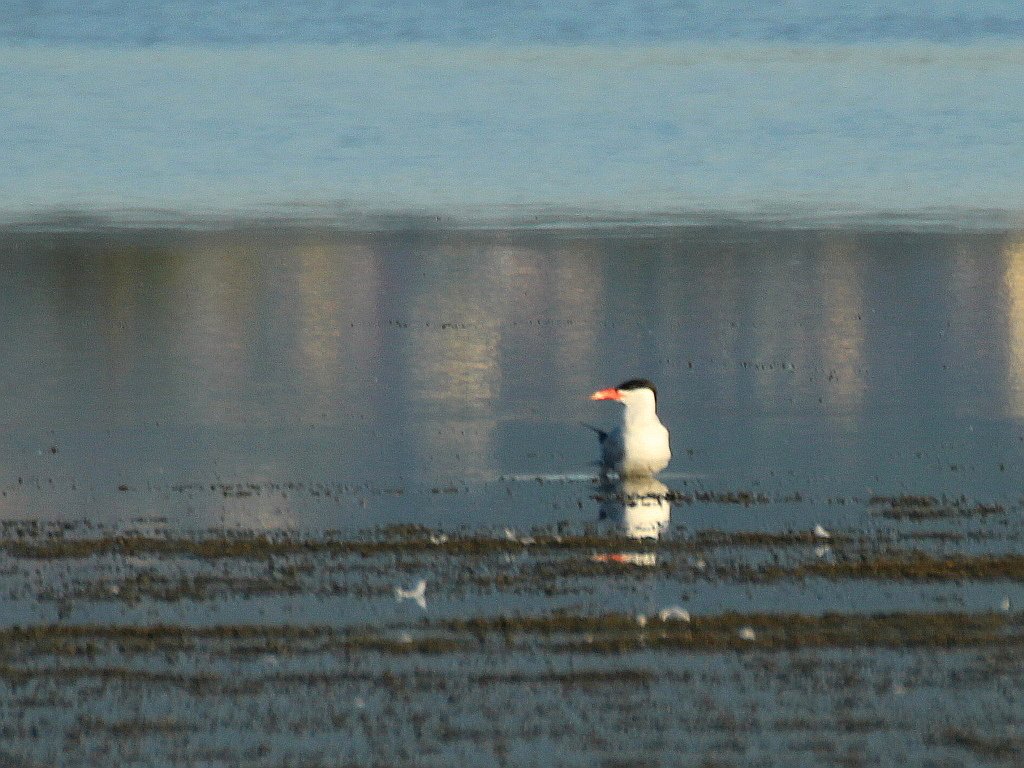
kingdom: Animalia
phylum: Chordata
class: Aves
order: Charadriiformes
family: Laridae
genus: Hydroprogne
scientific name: Hydroprogne caspia
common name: Caspian tern
